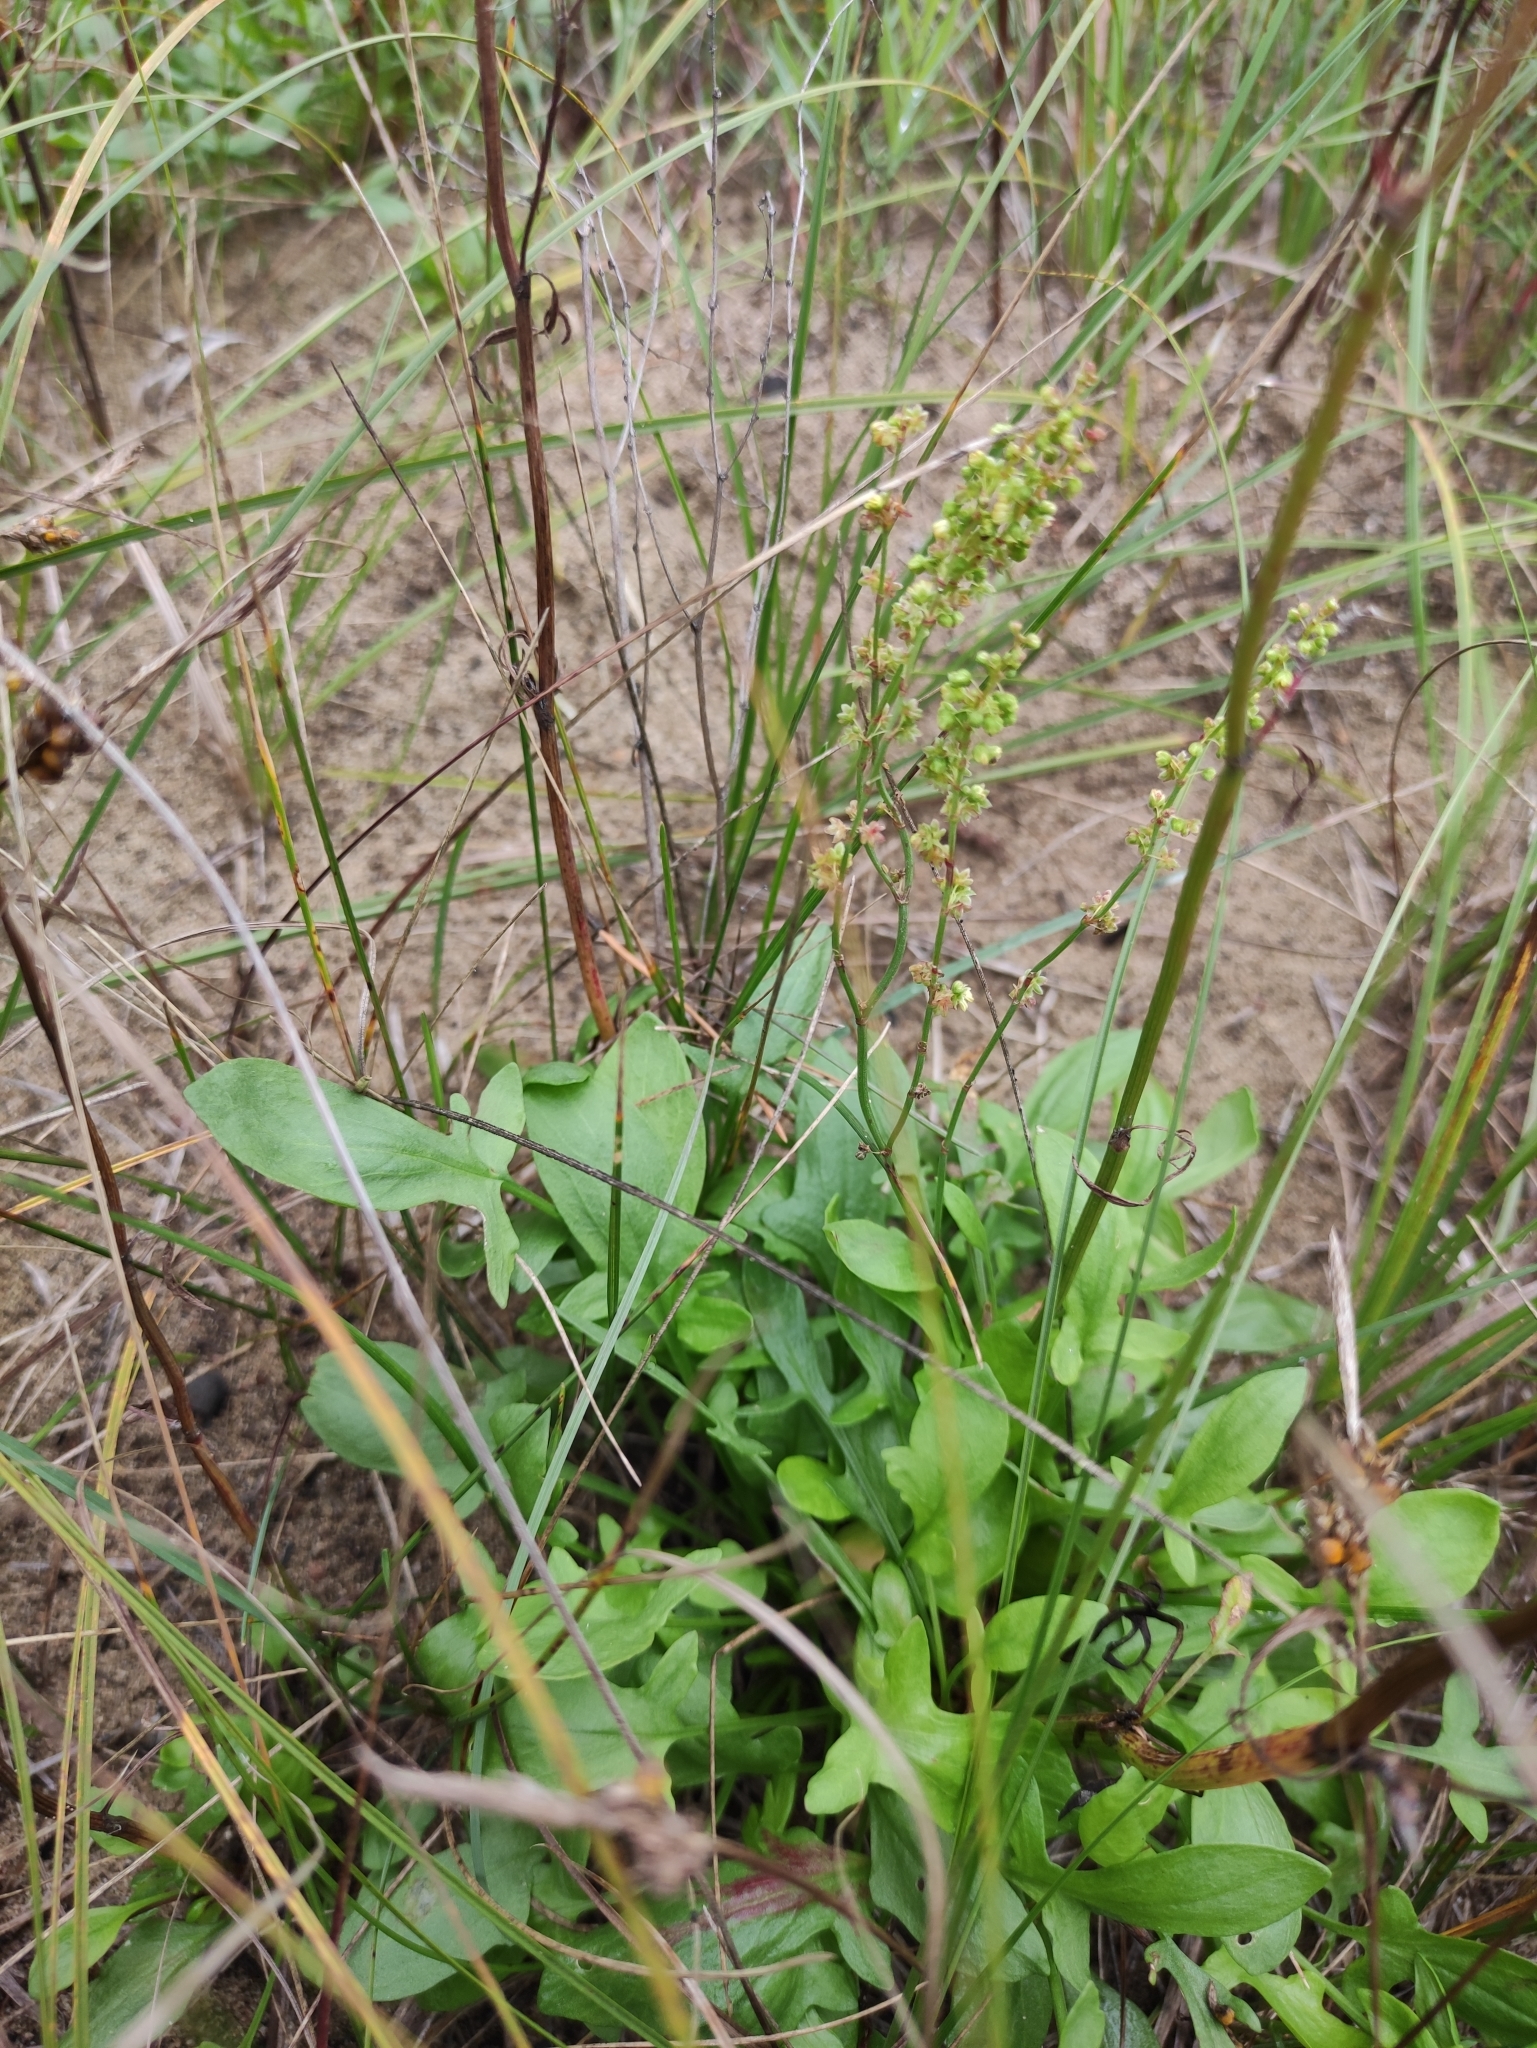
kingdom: Plantae
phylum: Tracheophyta
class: Magnoliopsida
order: Caryophyllales
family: Polygonaceae
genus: Rumex
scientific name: Rumex acetosella
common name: Common sheep sorrel
